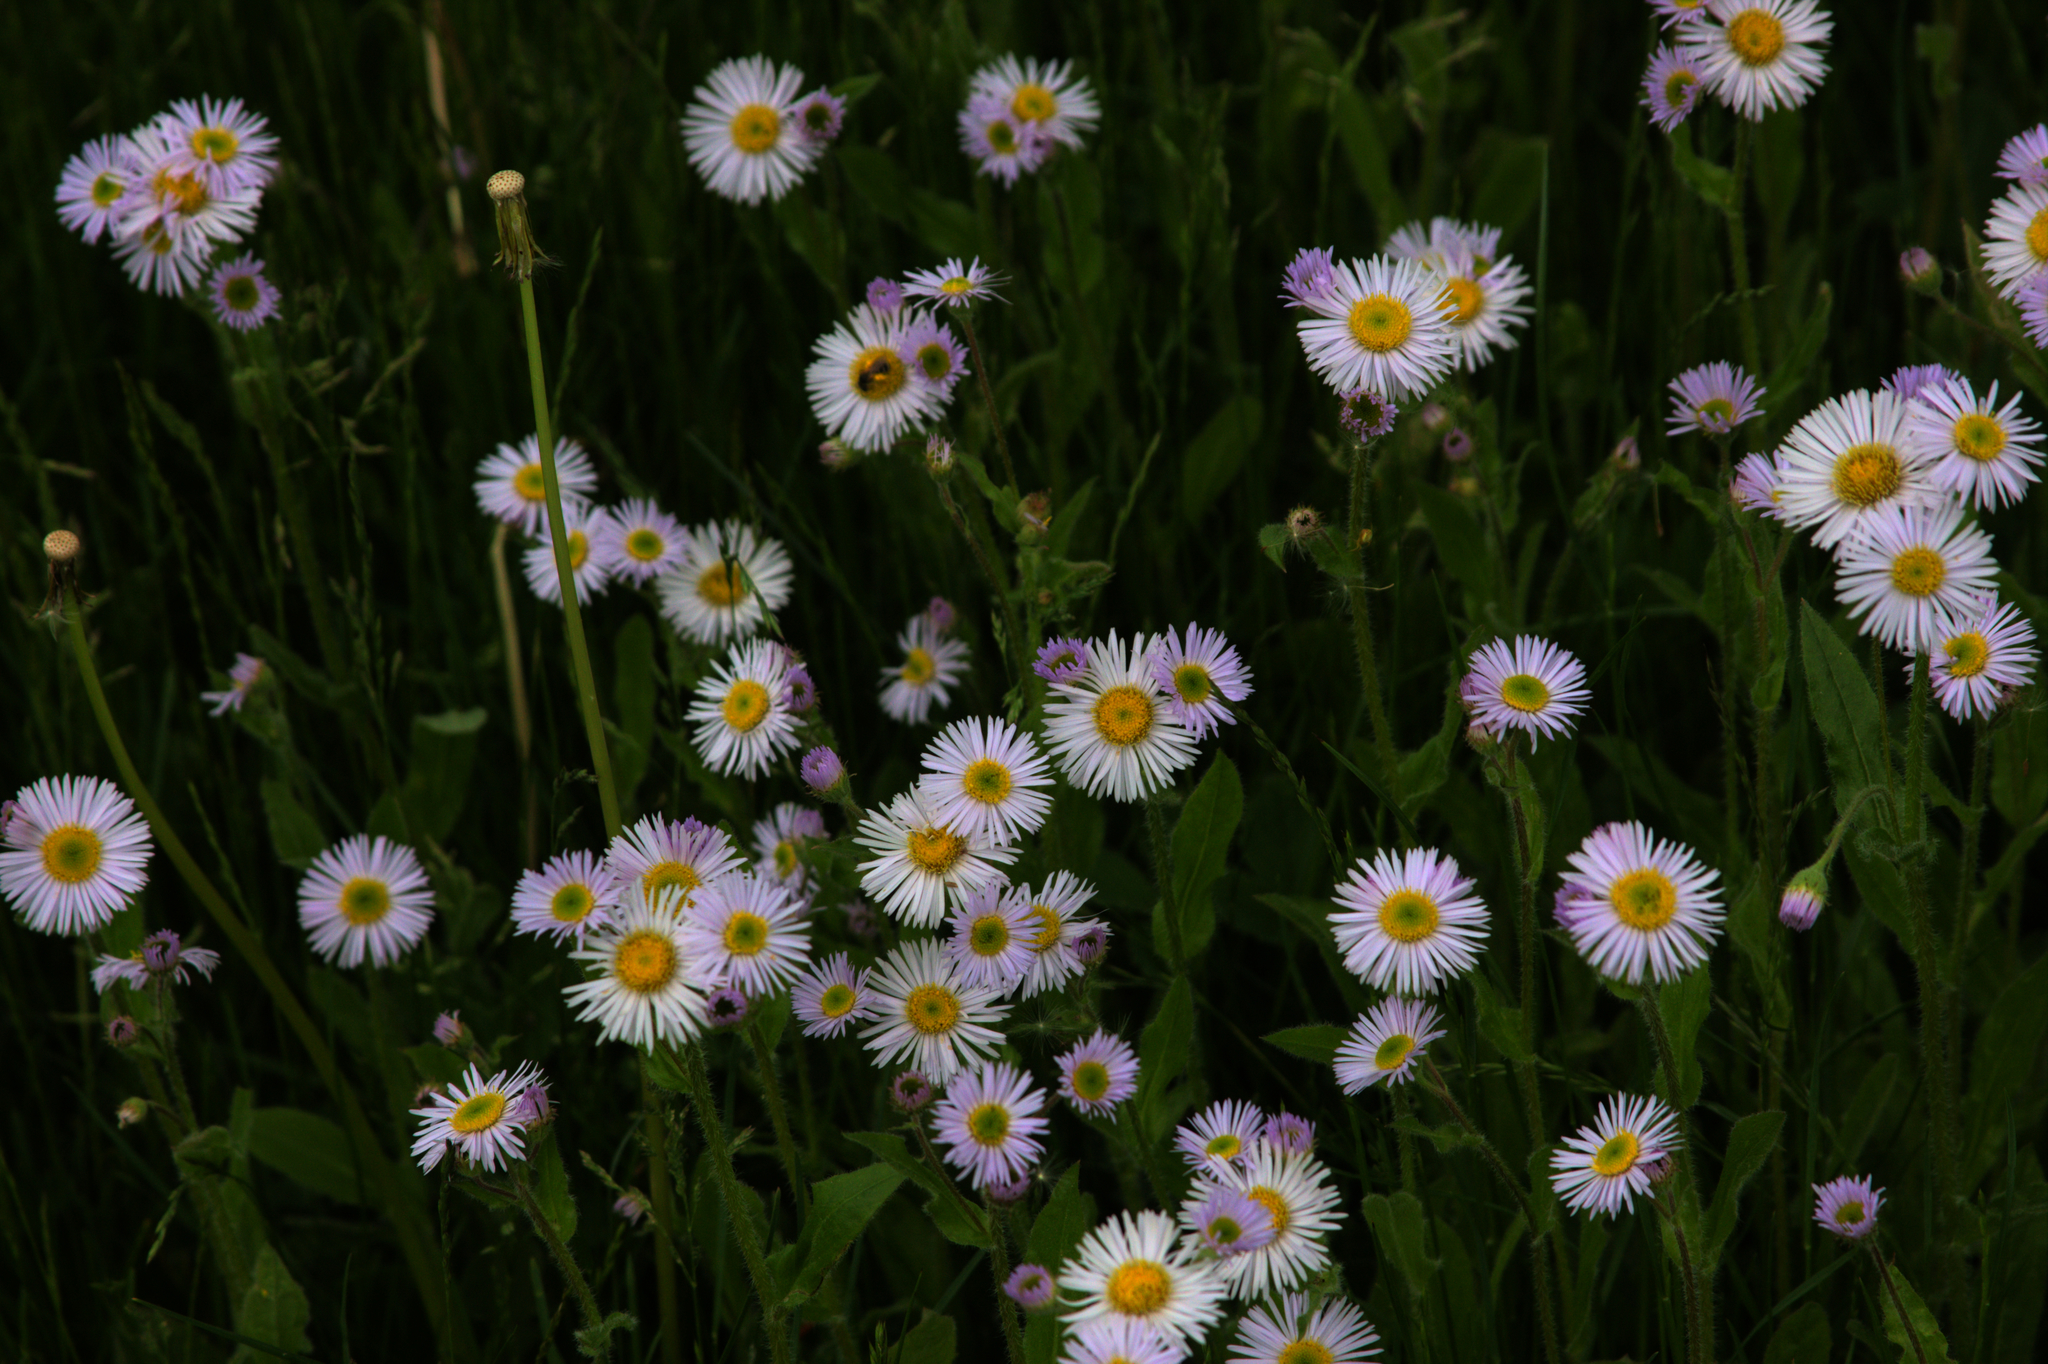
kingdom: Plantae
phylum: Tracheophyta
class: Magnoliopsida
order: Asterales
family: Asteraceae
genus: Erigeron
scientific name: Erigeron pulchellus
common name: Hairy fleabane
